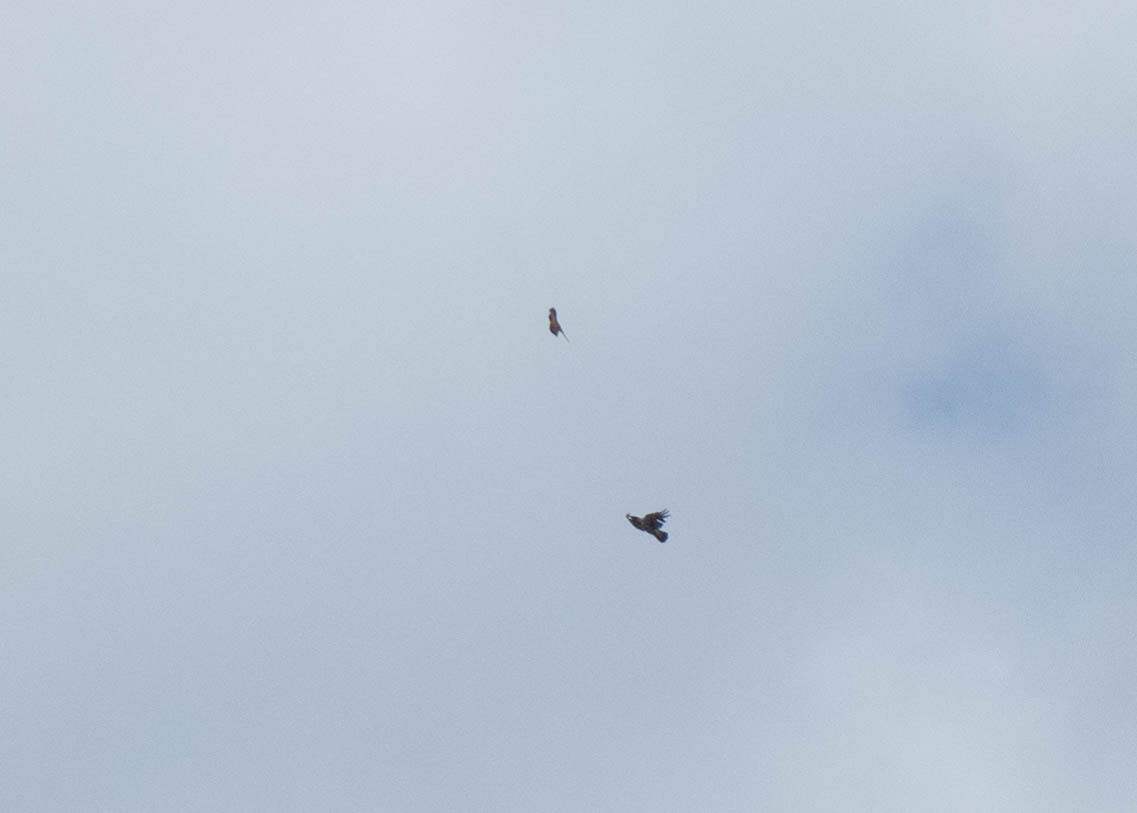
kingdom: Animalia
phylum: Chordata
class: Aves
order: Falconiformes
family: Falconidae
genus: Falco
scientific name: Falco tinnunculus
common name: Common kestrel
